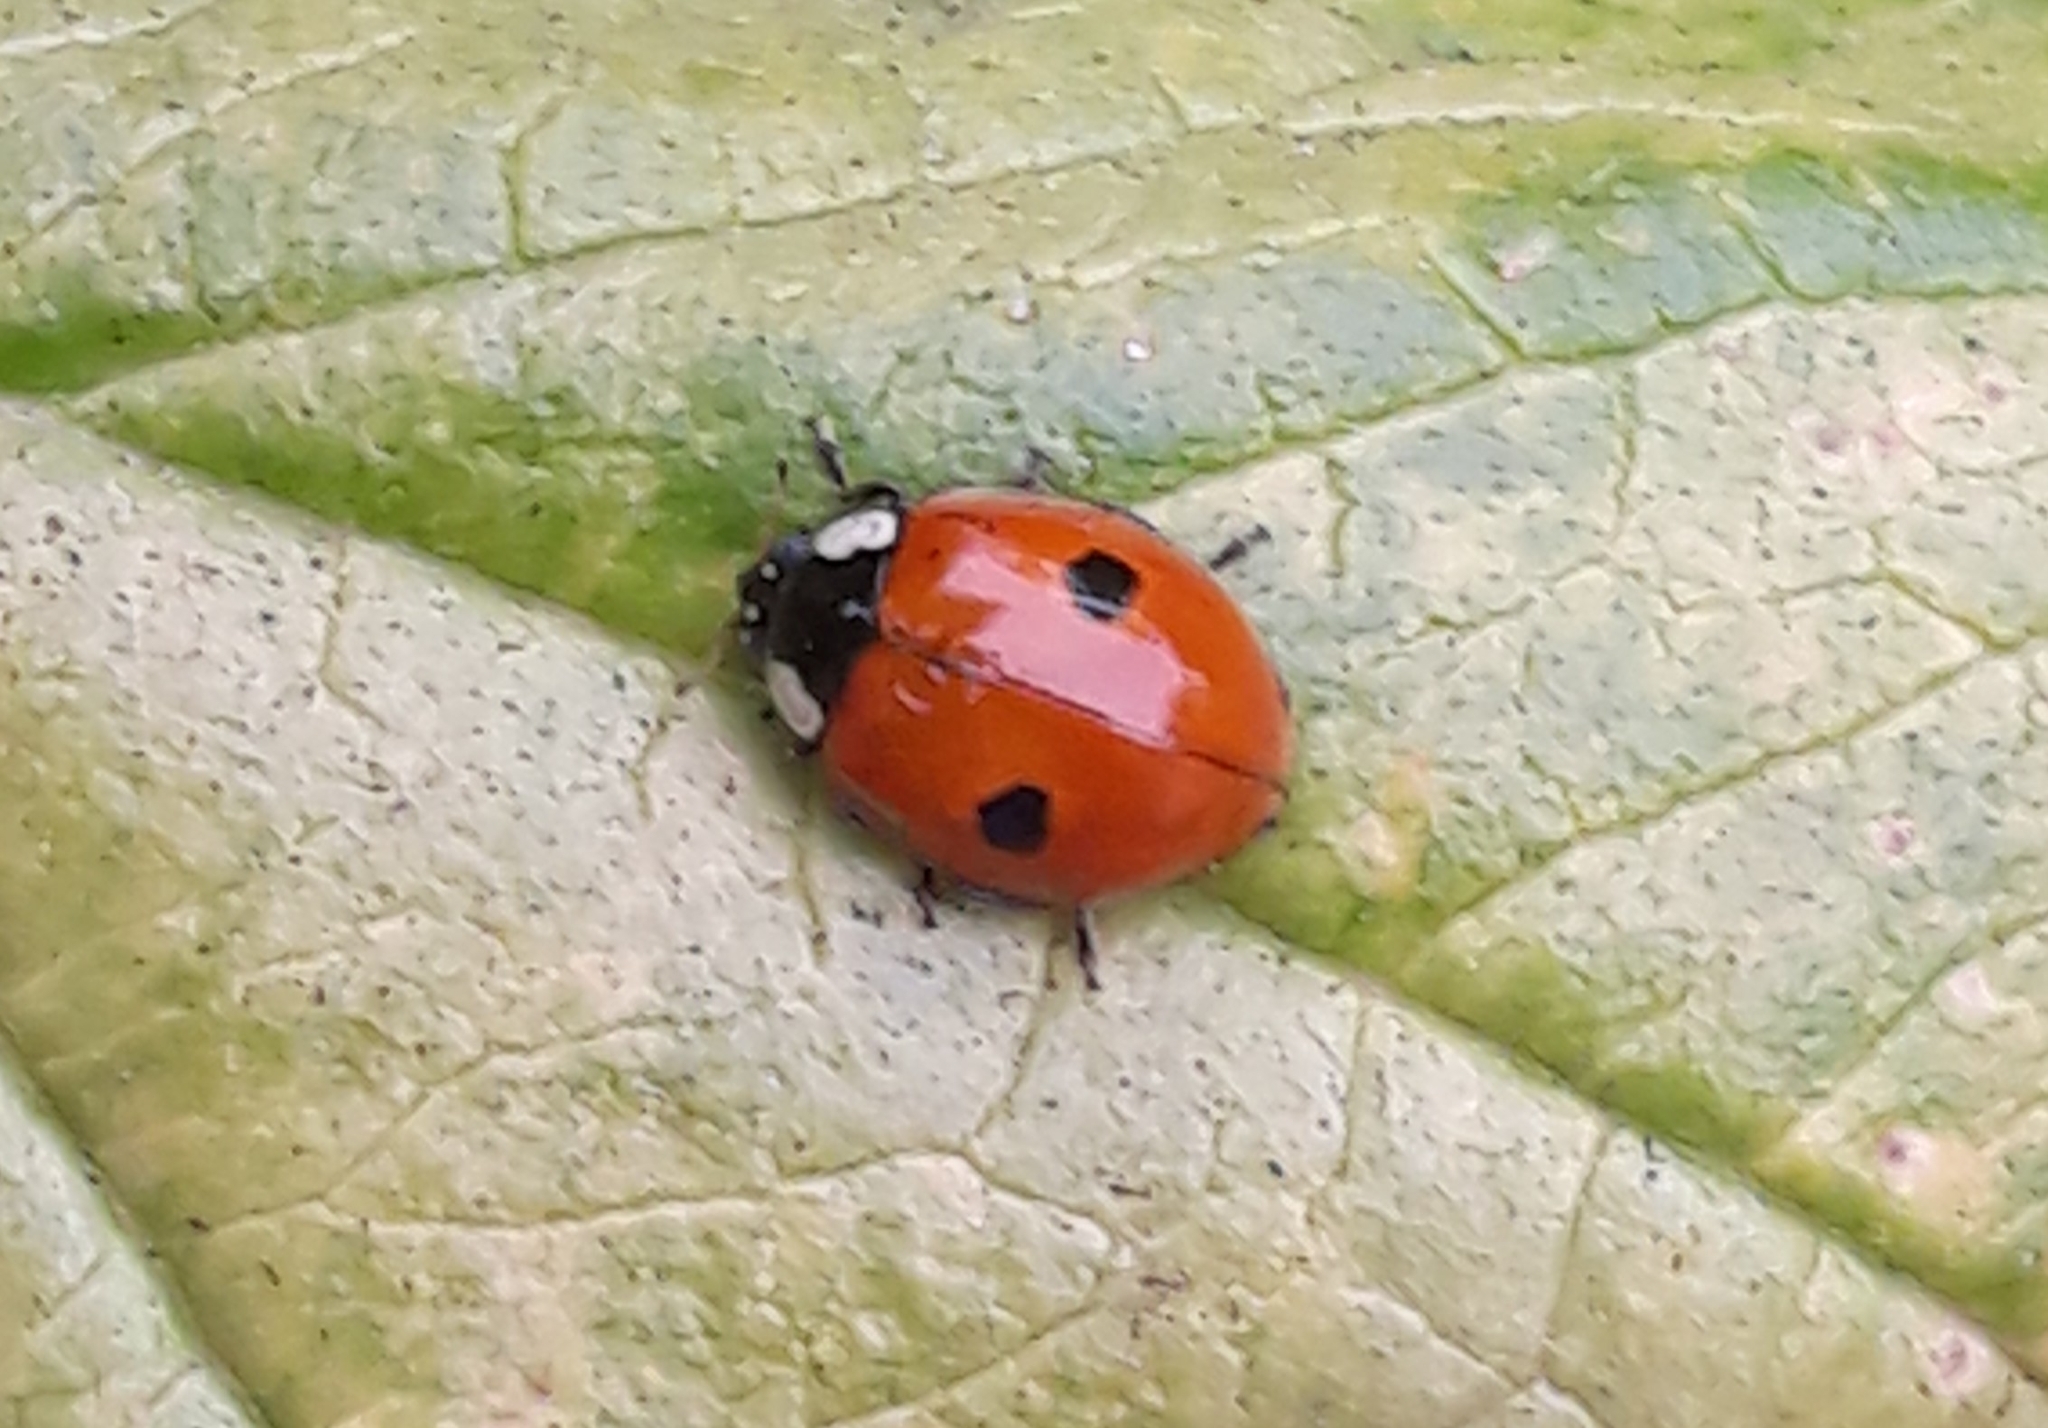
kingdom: Animalia
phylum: Arthropoda
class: Insecta
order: Coleoptera
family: Coccinellidae
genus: Adalia
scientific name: Adalia bipunctata
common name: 2-spot ladybird
